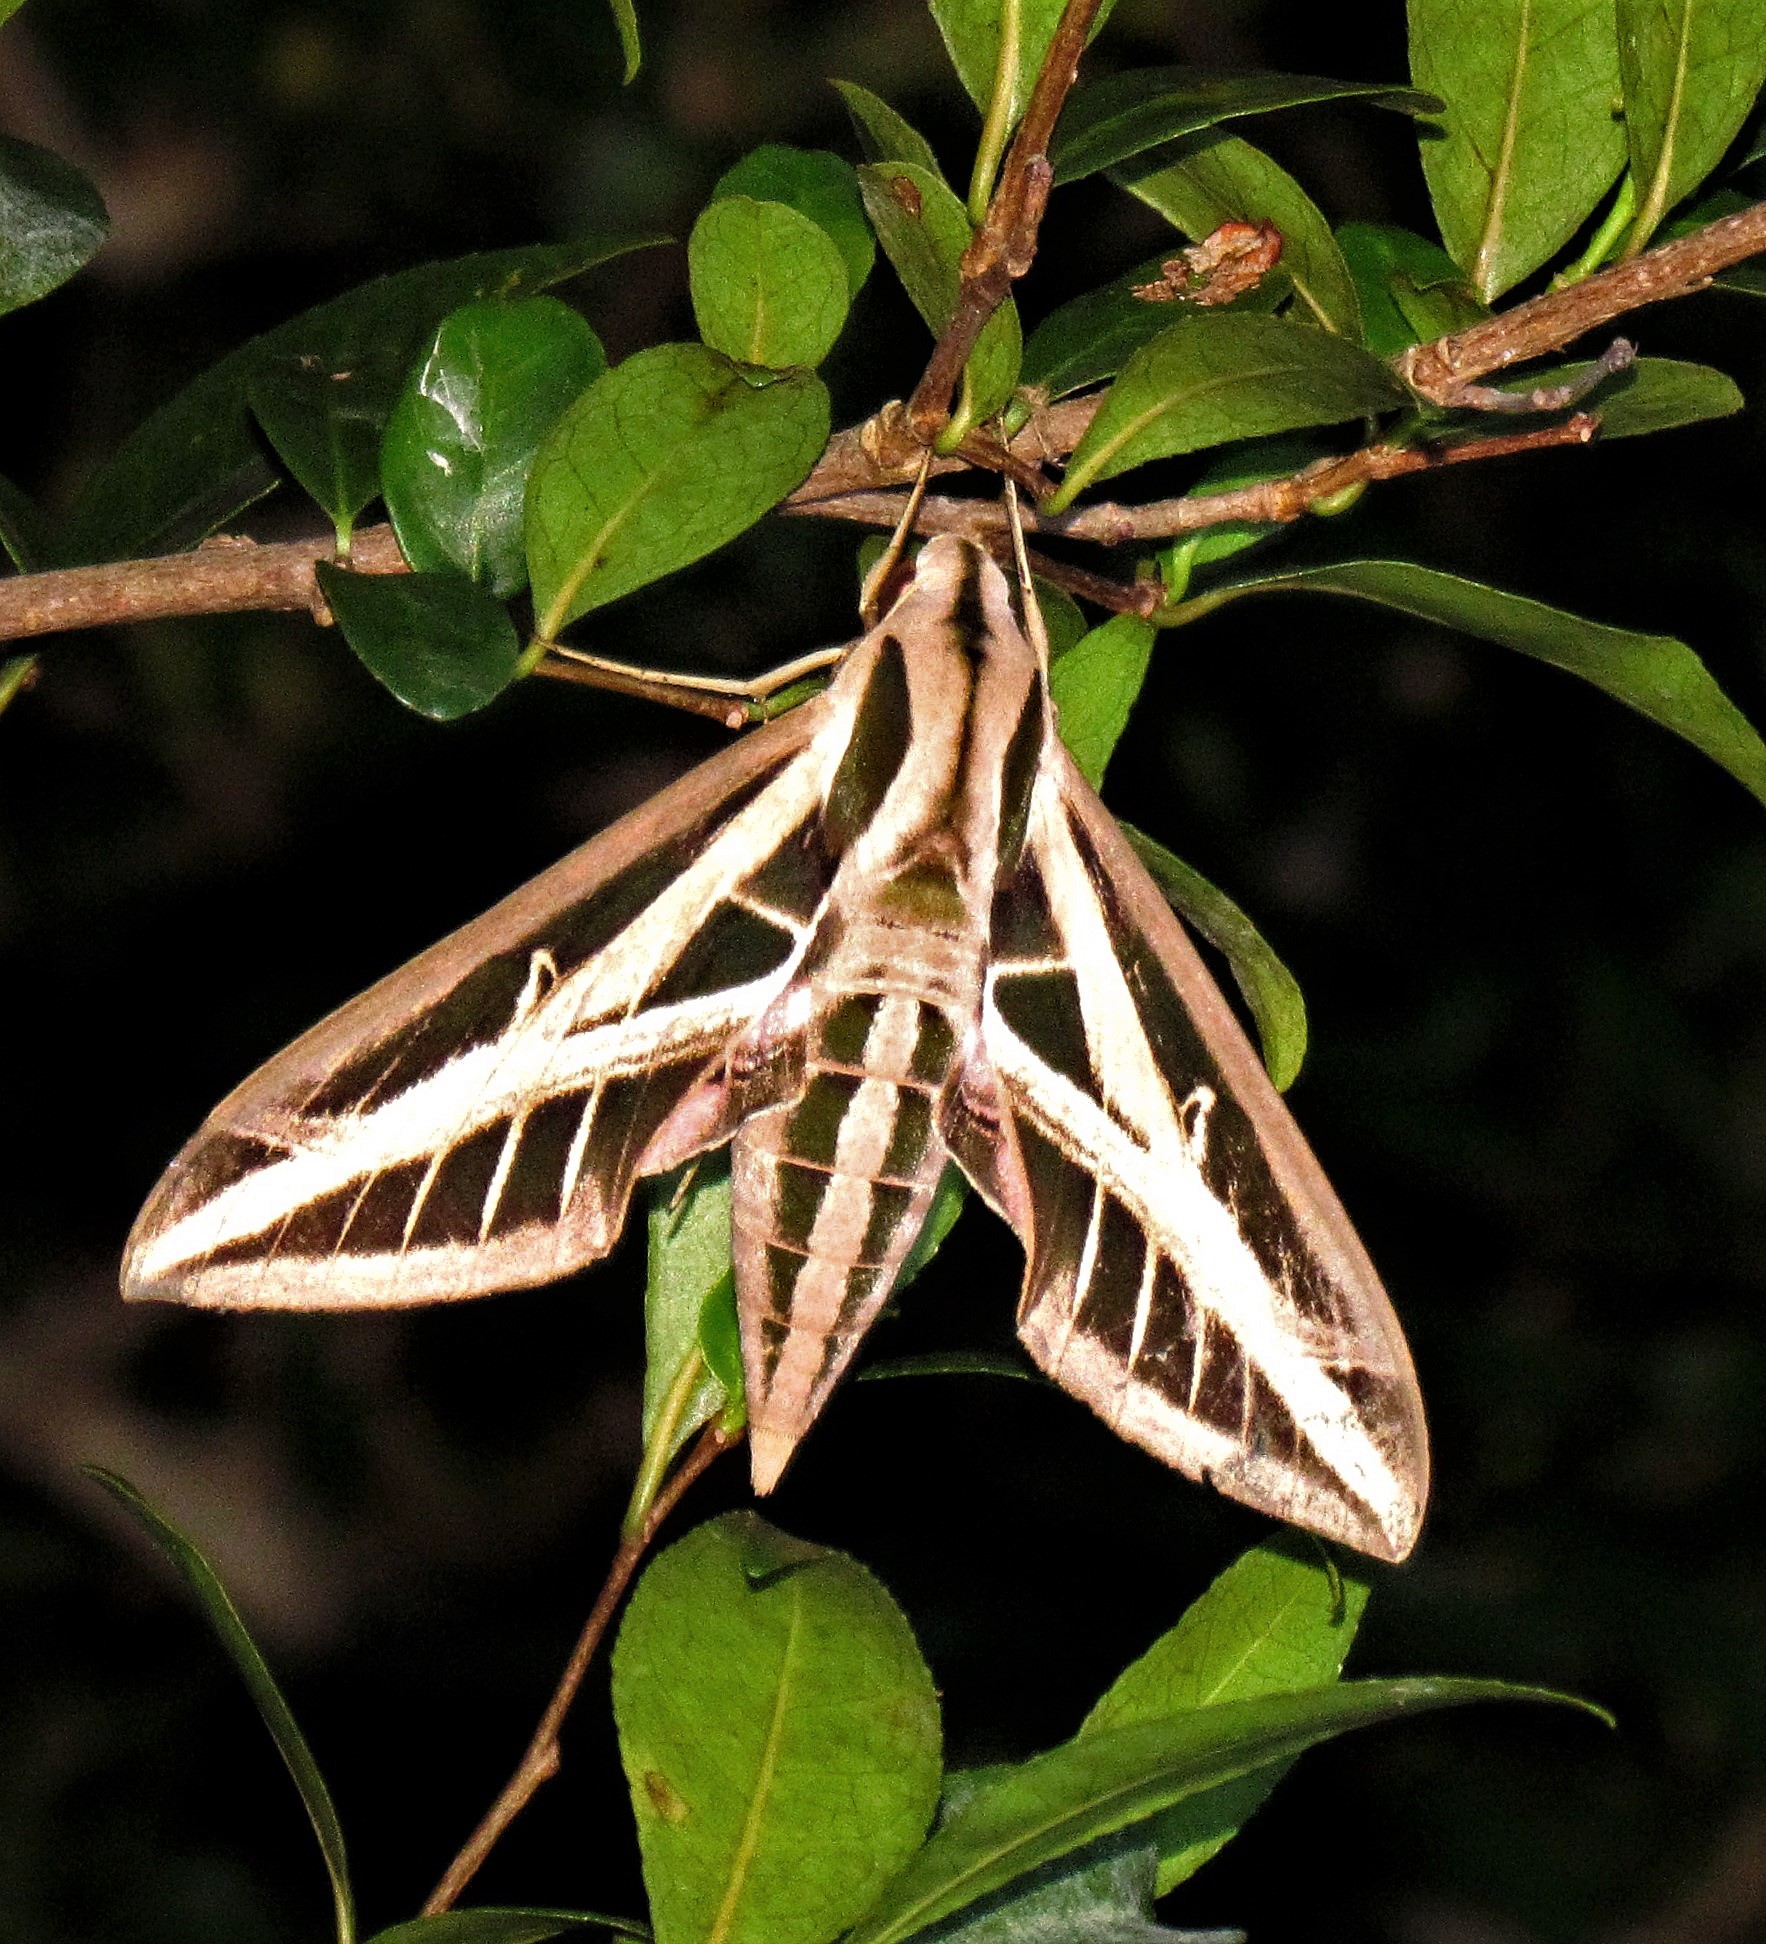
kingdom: Animalia
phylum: Arthropoda
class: Insecta
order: Lepidoptera
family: Sphingidae
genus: Eumorpha
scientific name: Eumorpha fasciatus
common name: Banded sphinx
